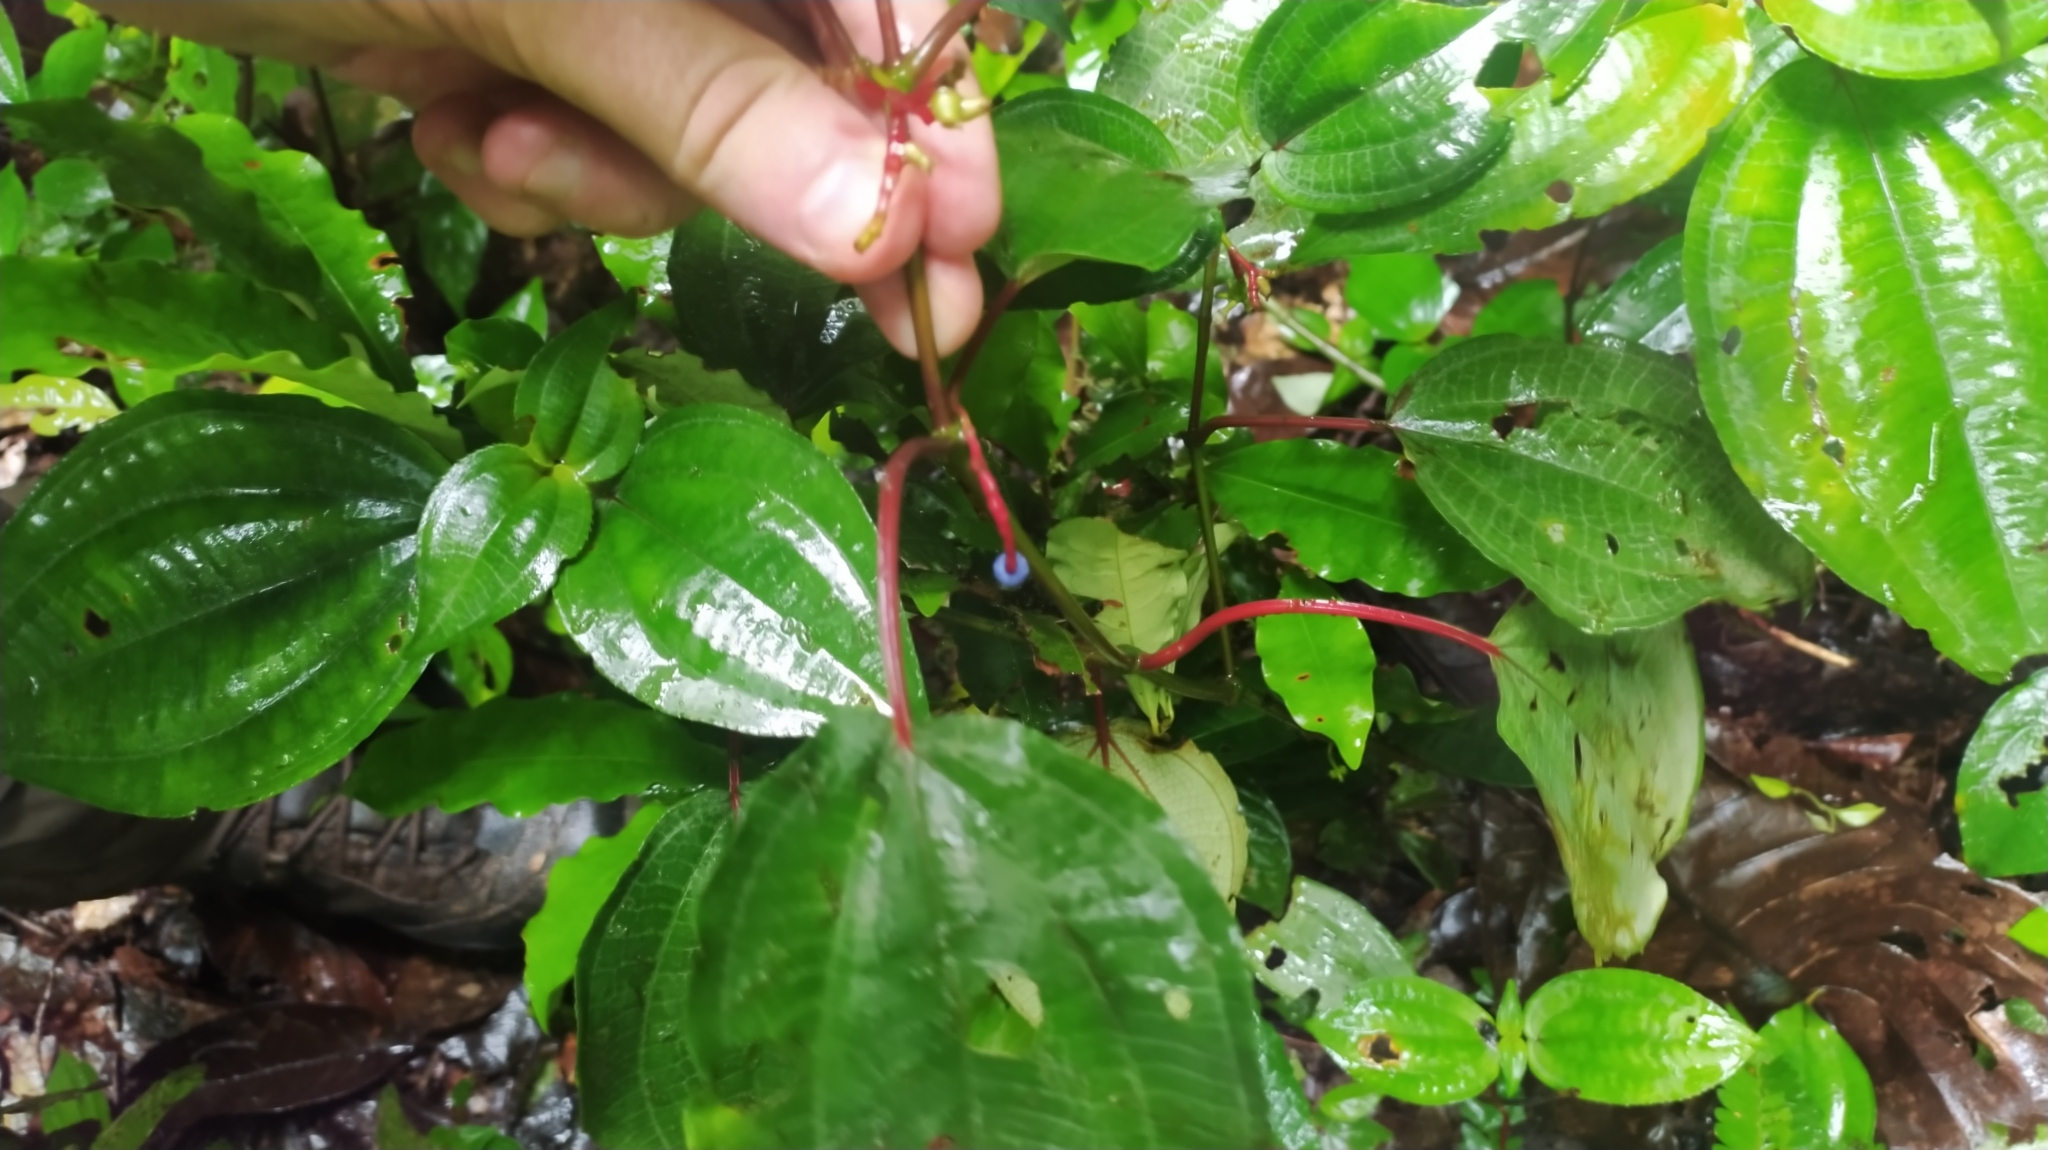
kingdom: Plantae
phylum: Tracheophyta
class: Magnoliopsida
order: Myrtales
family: Melastomataceae
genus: Miconia
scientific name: Miconia trimera
